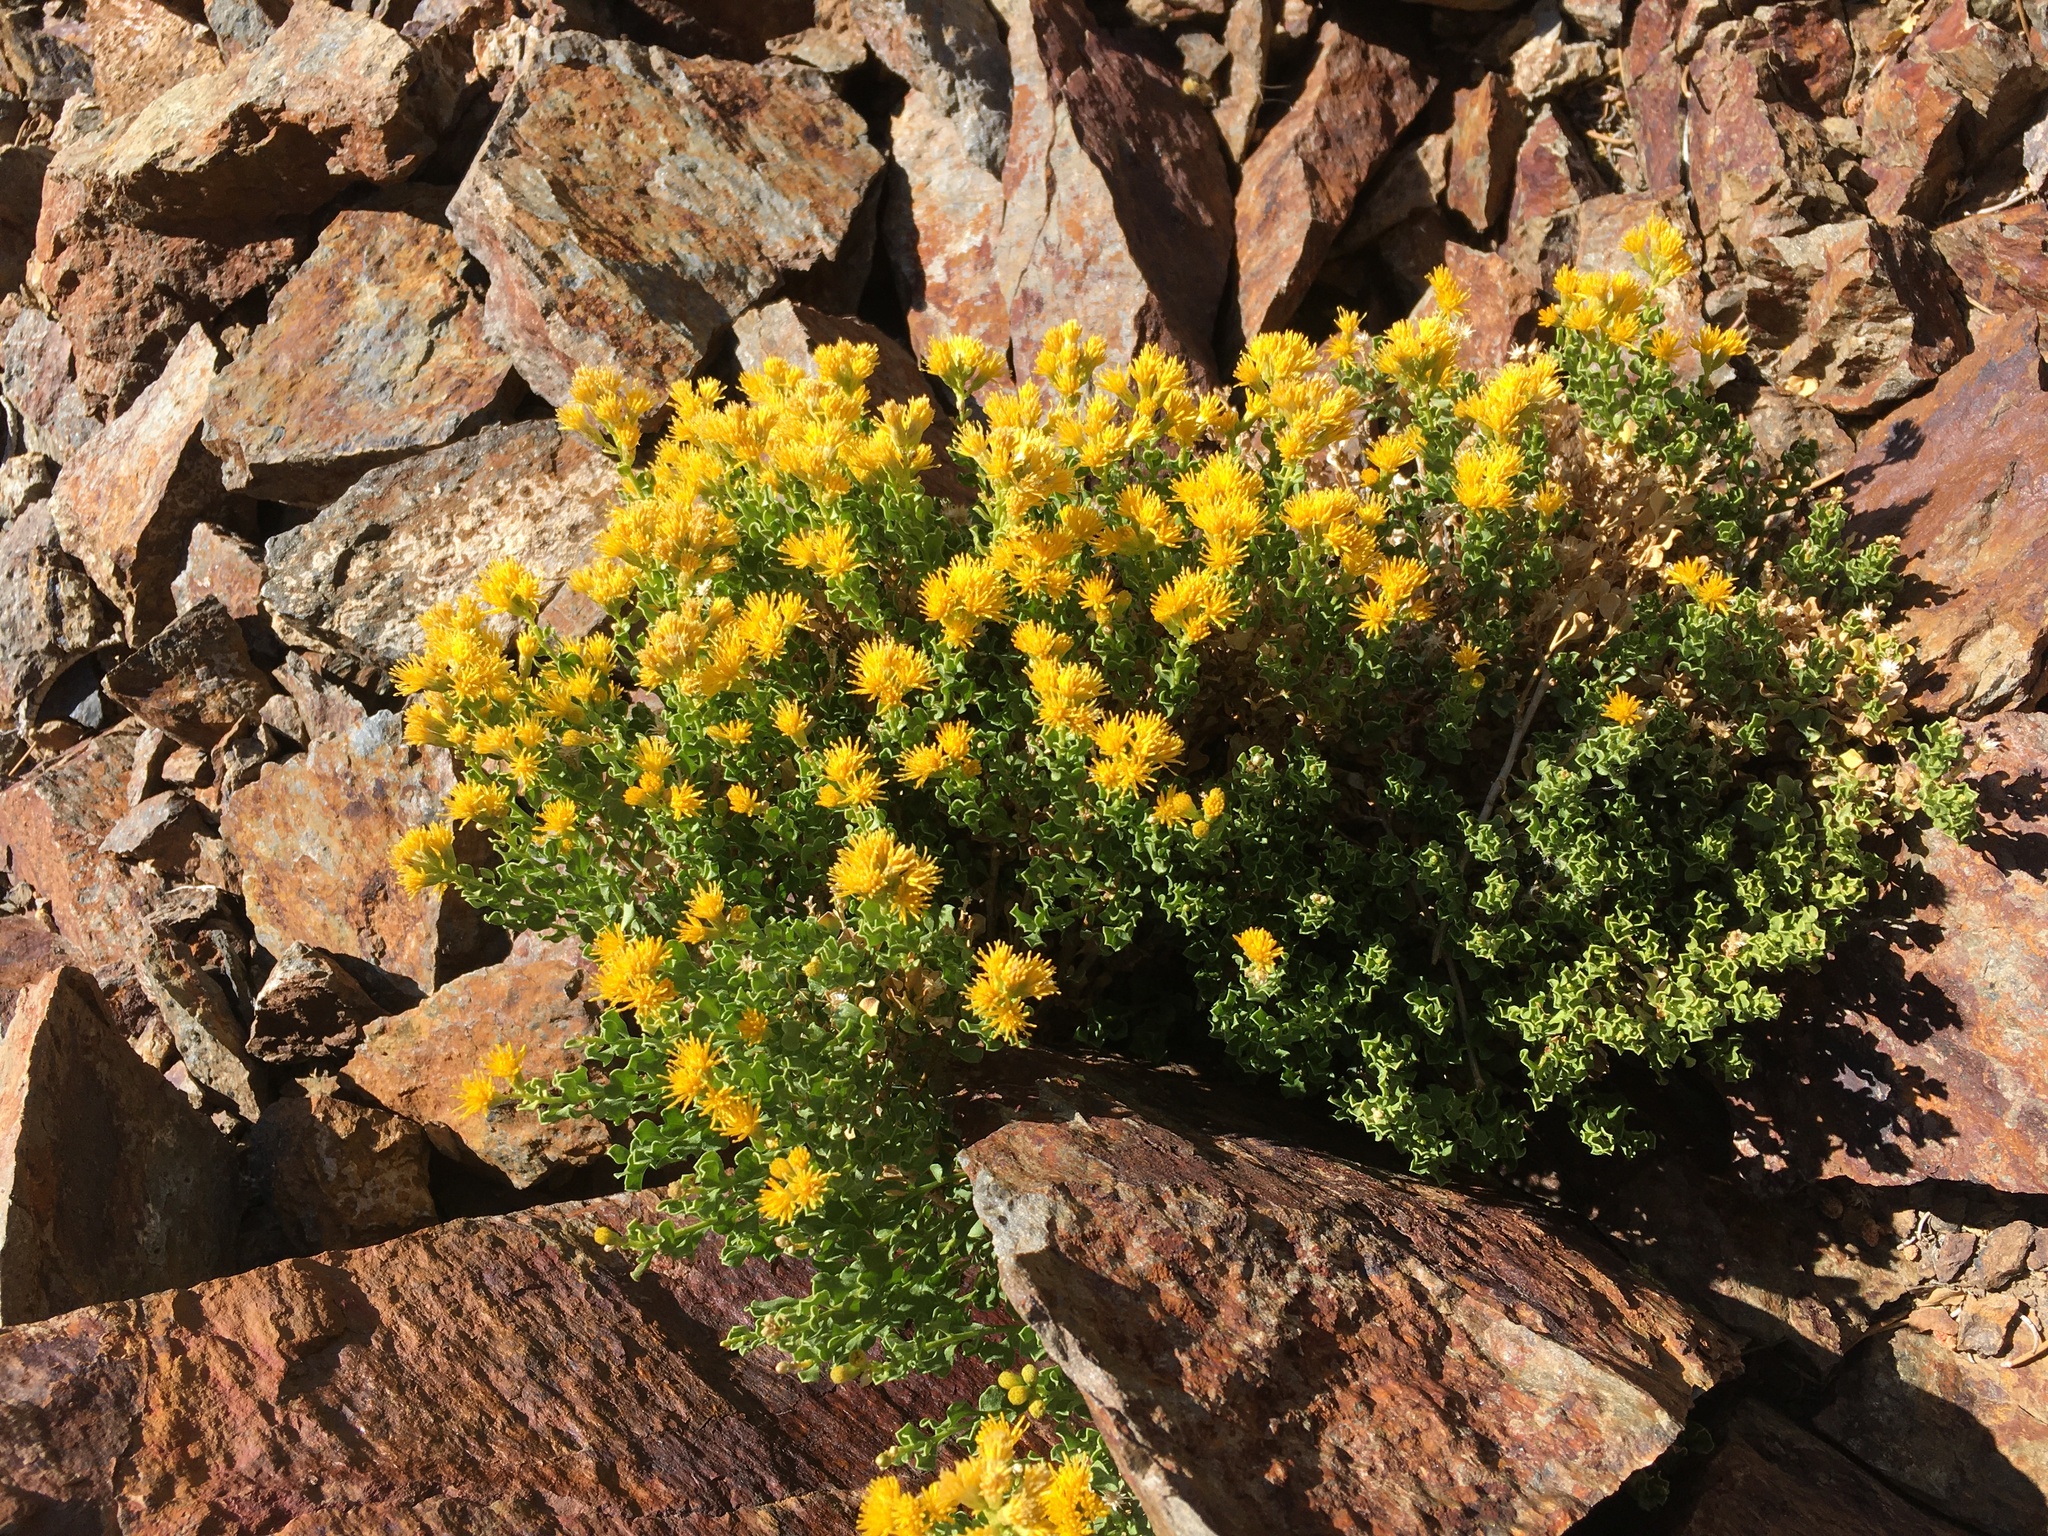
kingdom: Plantae
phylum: Tracheophyta
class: Magnoliopsida
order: Asterales
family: Asteraceae
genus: Ericameria
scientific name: Ericameria cuneata
